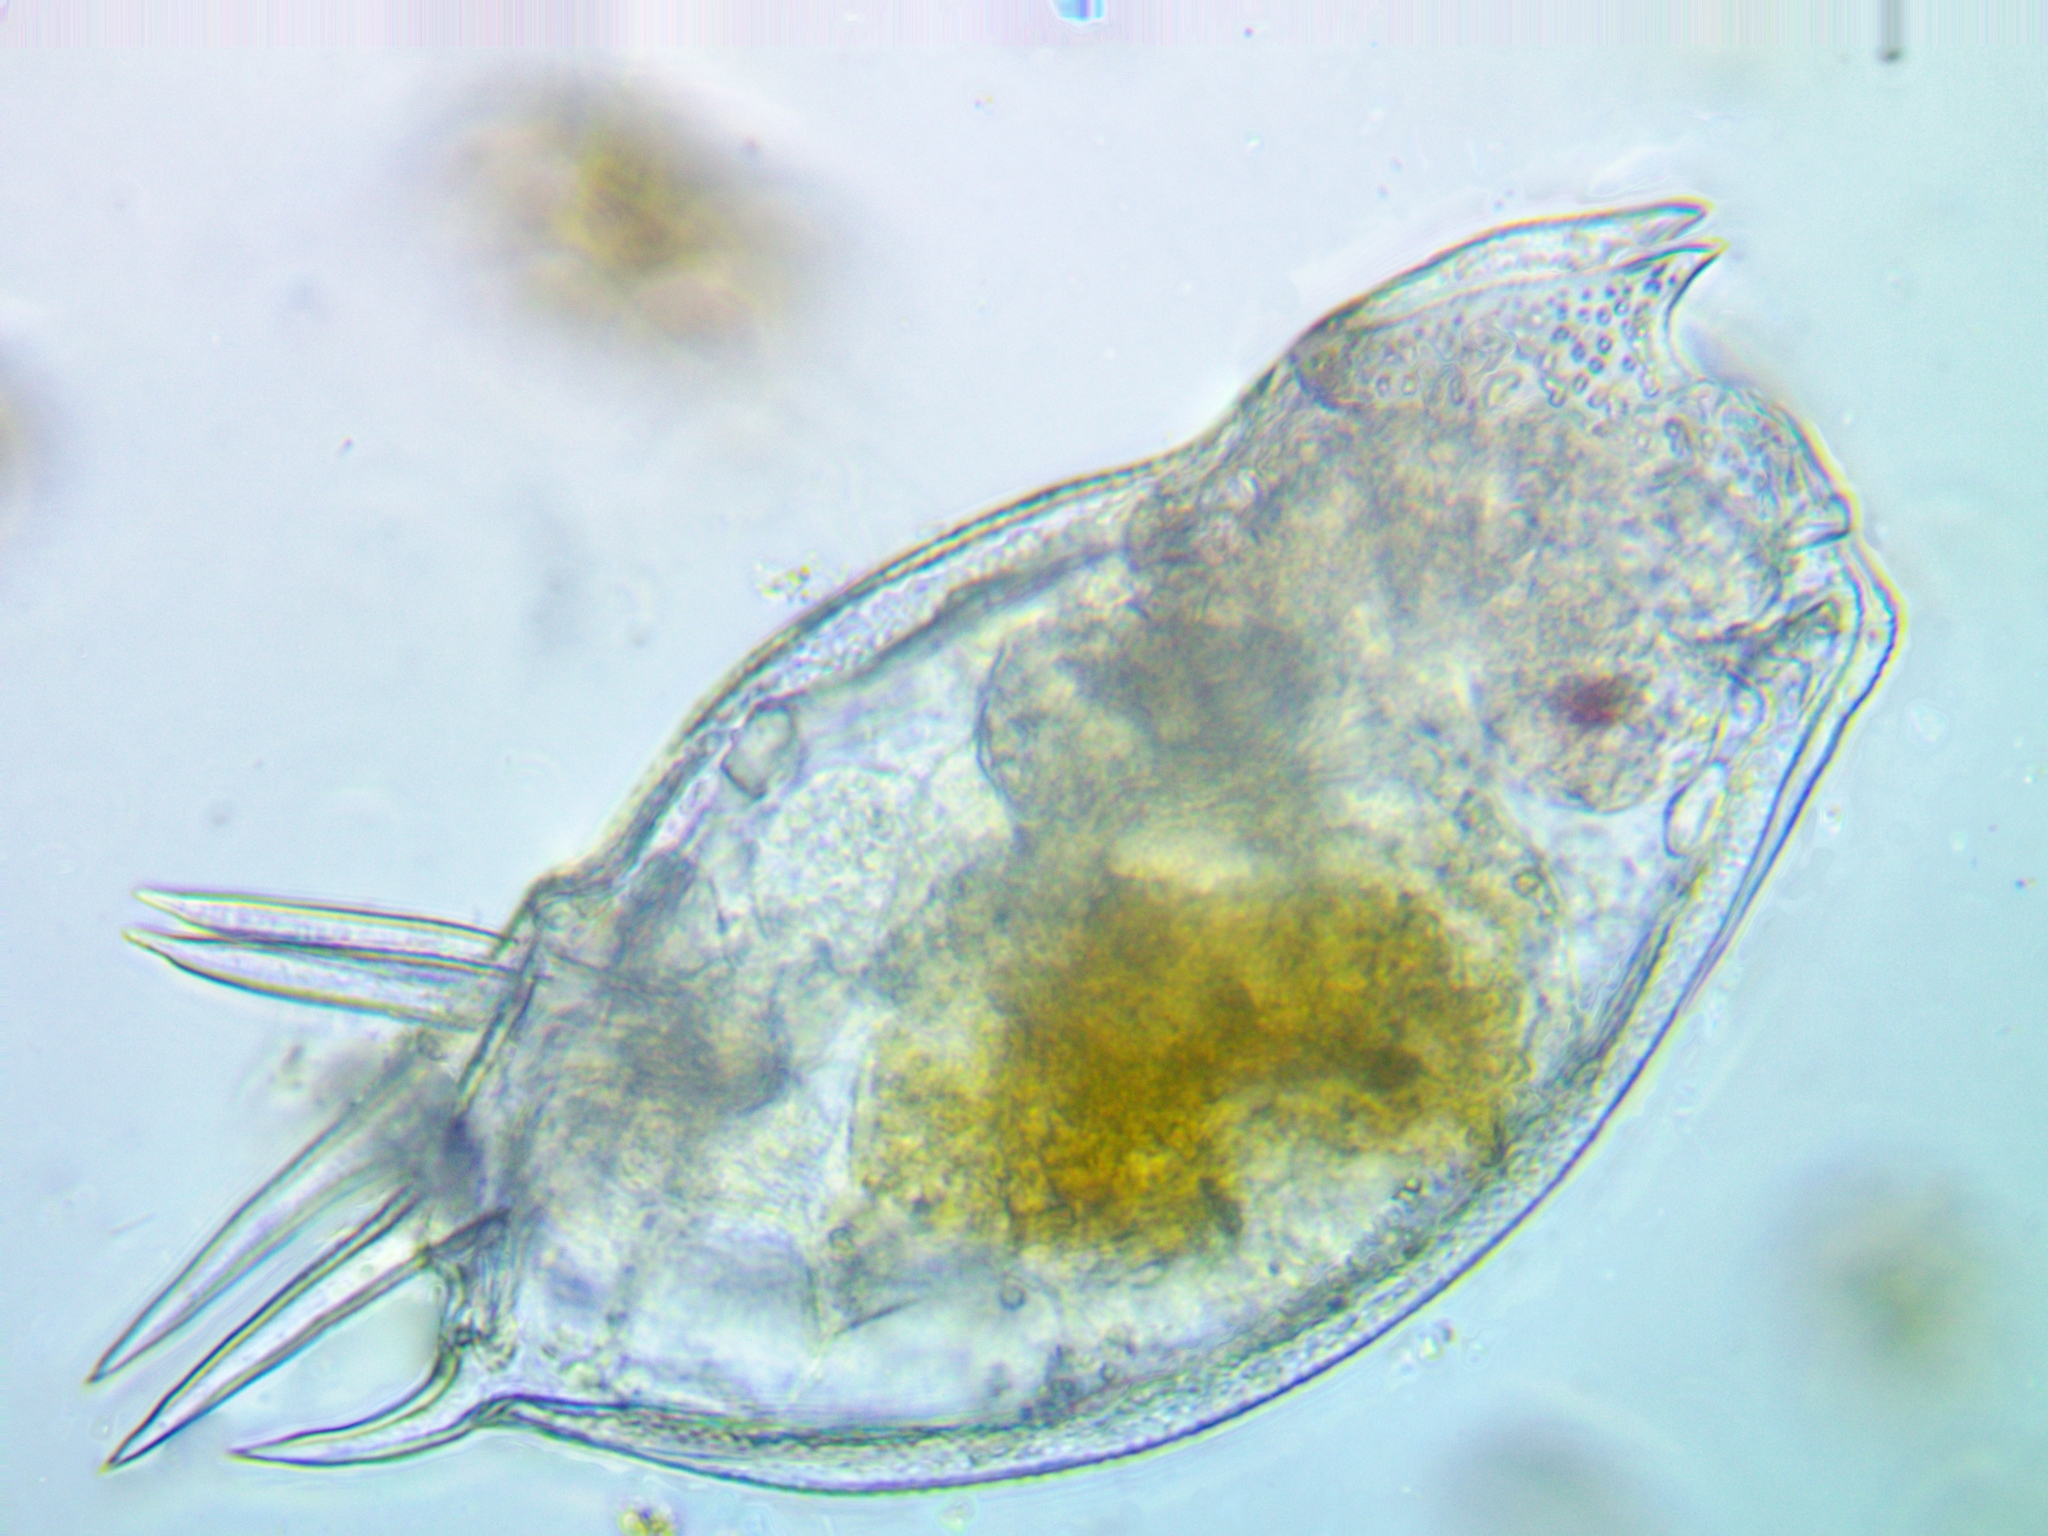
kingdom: Animalia
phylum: Rotifera
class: Eurotatoria
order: Ploima
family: Mytilinidae
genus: Mytilina
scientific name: Mytilina ventralis
